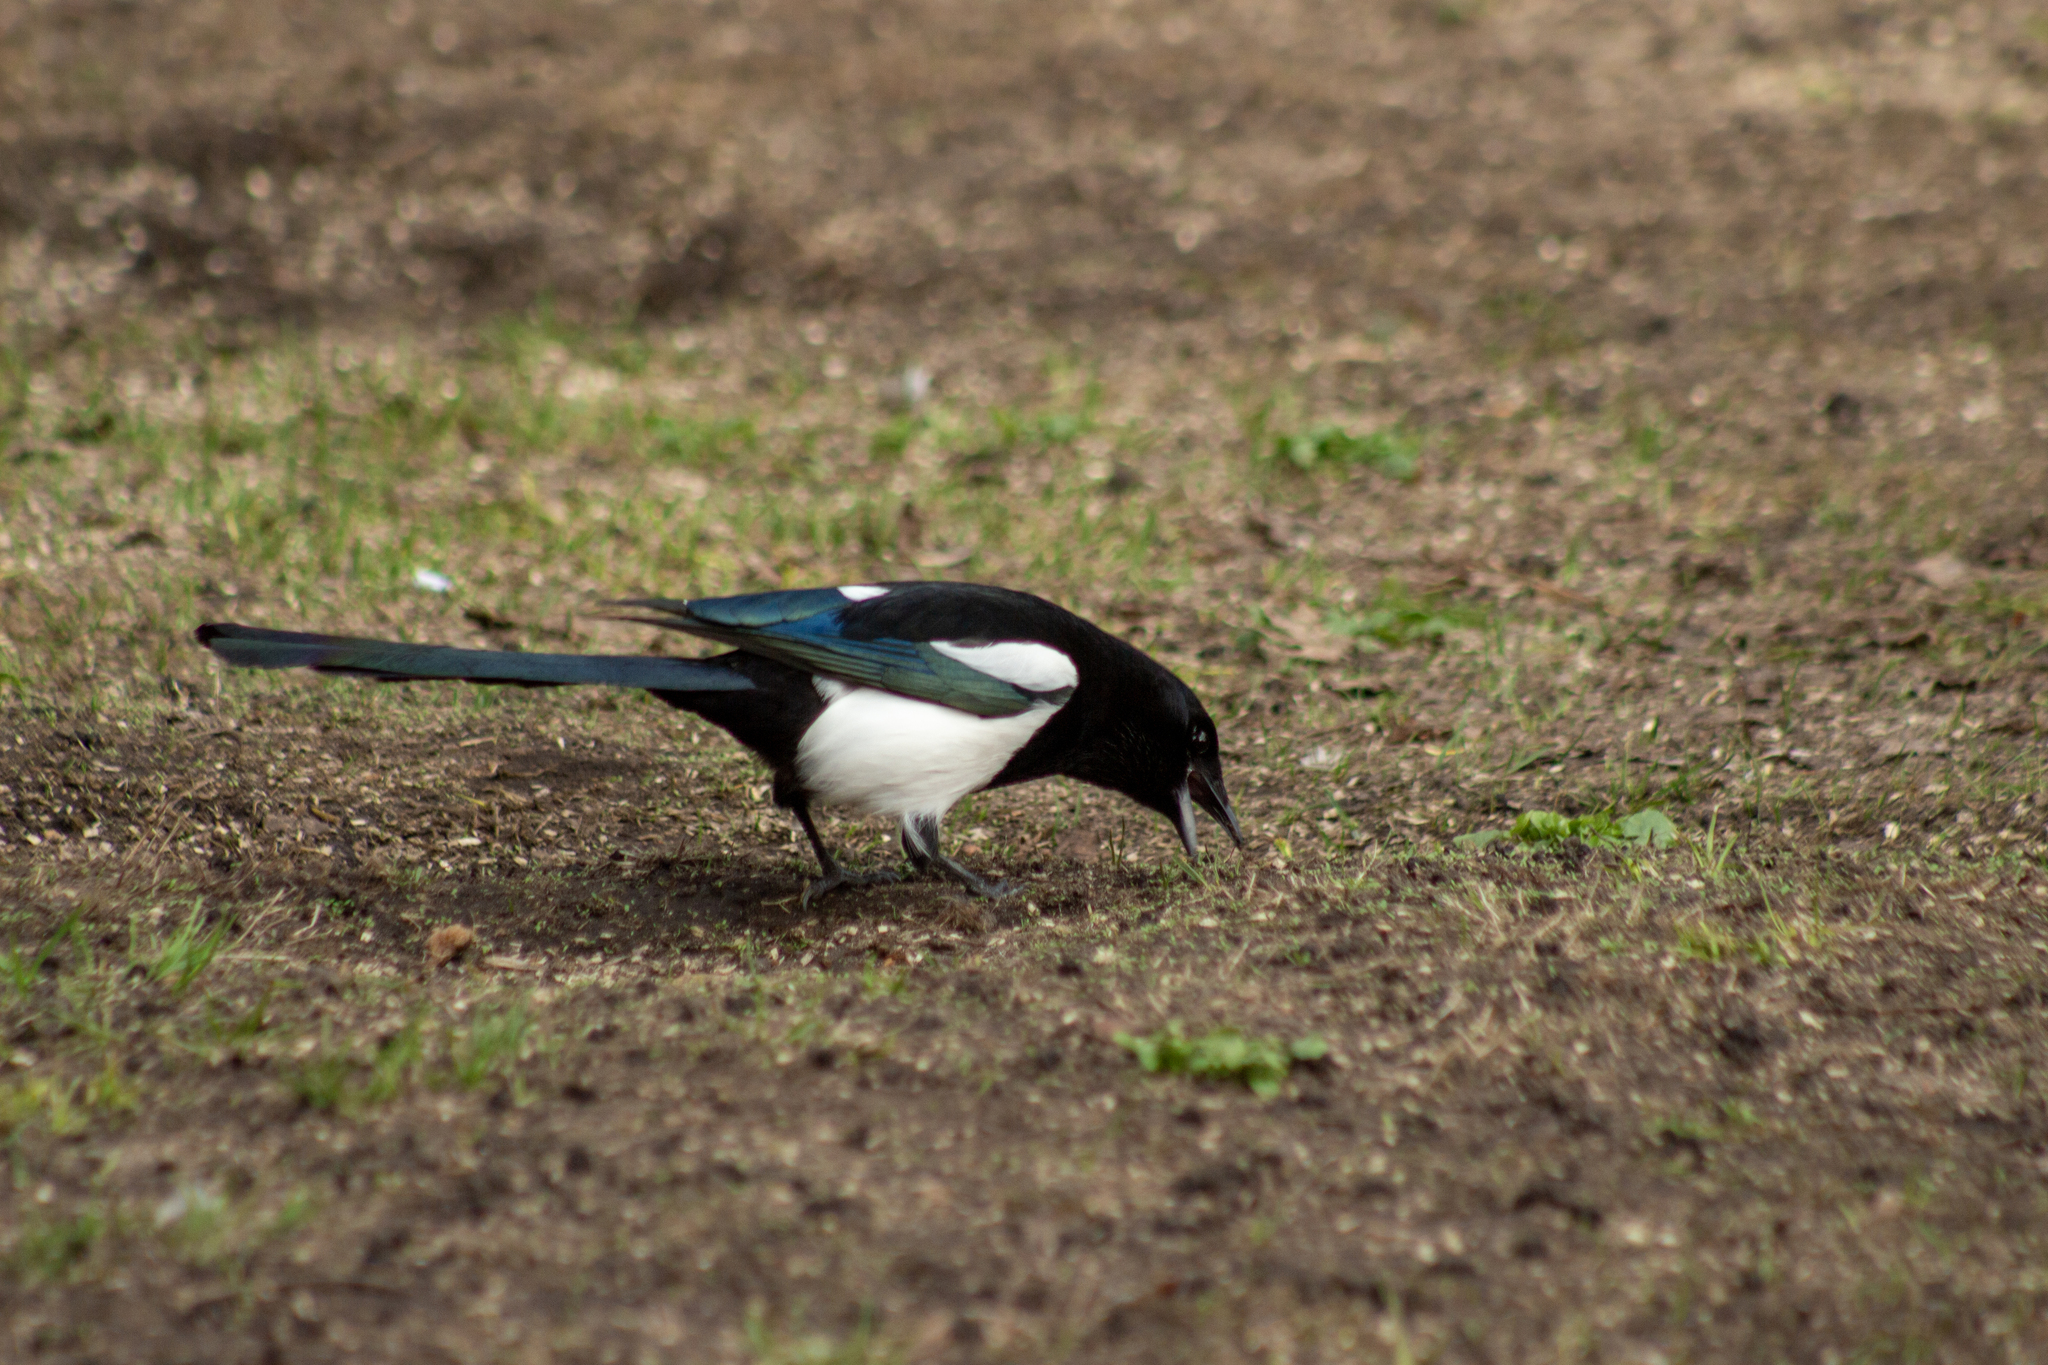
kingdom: Animalia
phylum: Chordata
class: Aves
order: Passeriformes
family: Corvidae
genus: Pica
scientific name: Pica pica
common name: Eurasian magpie
